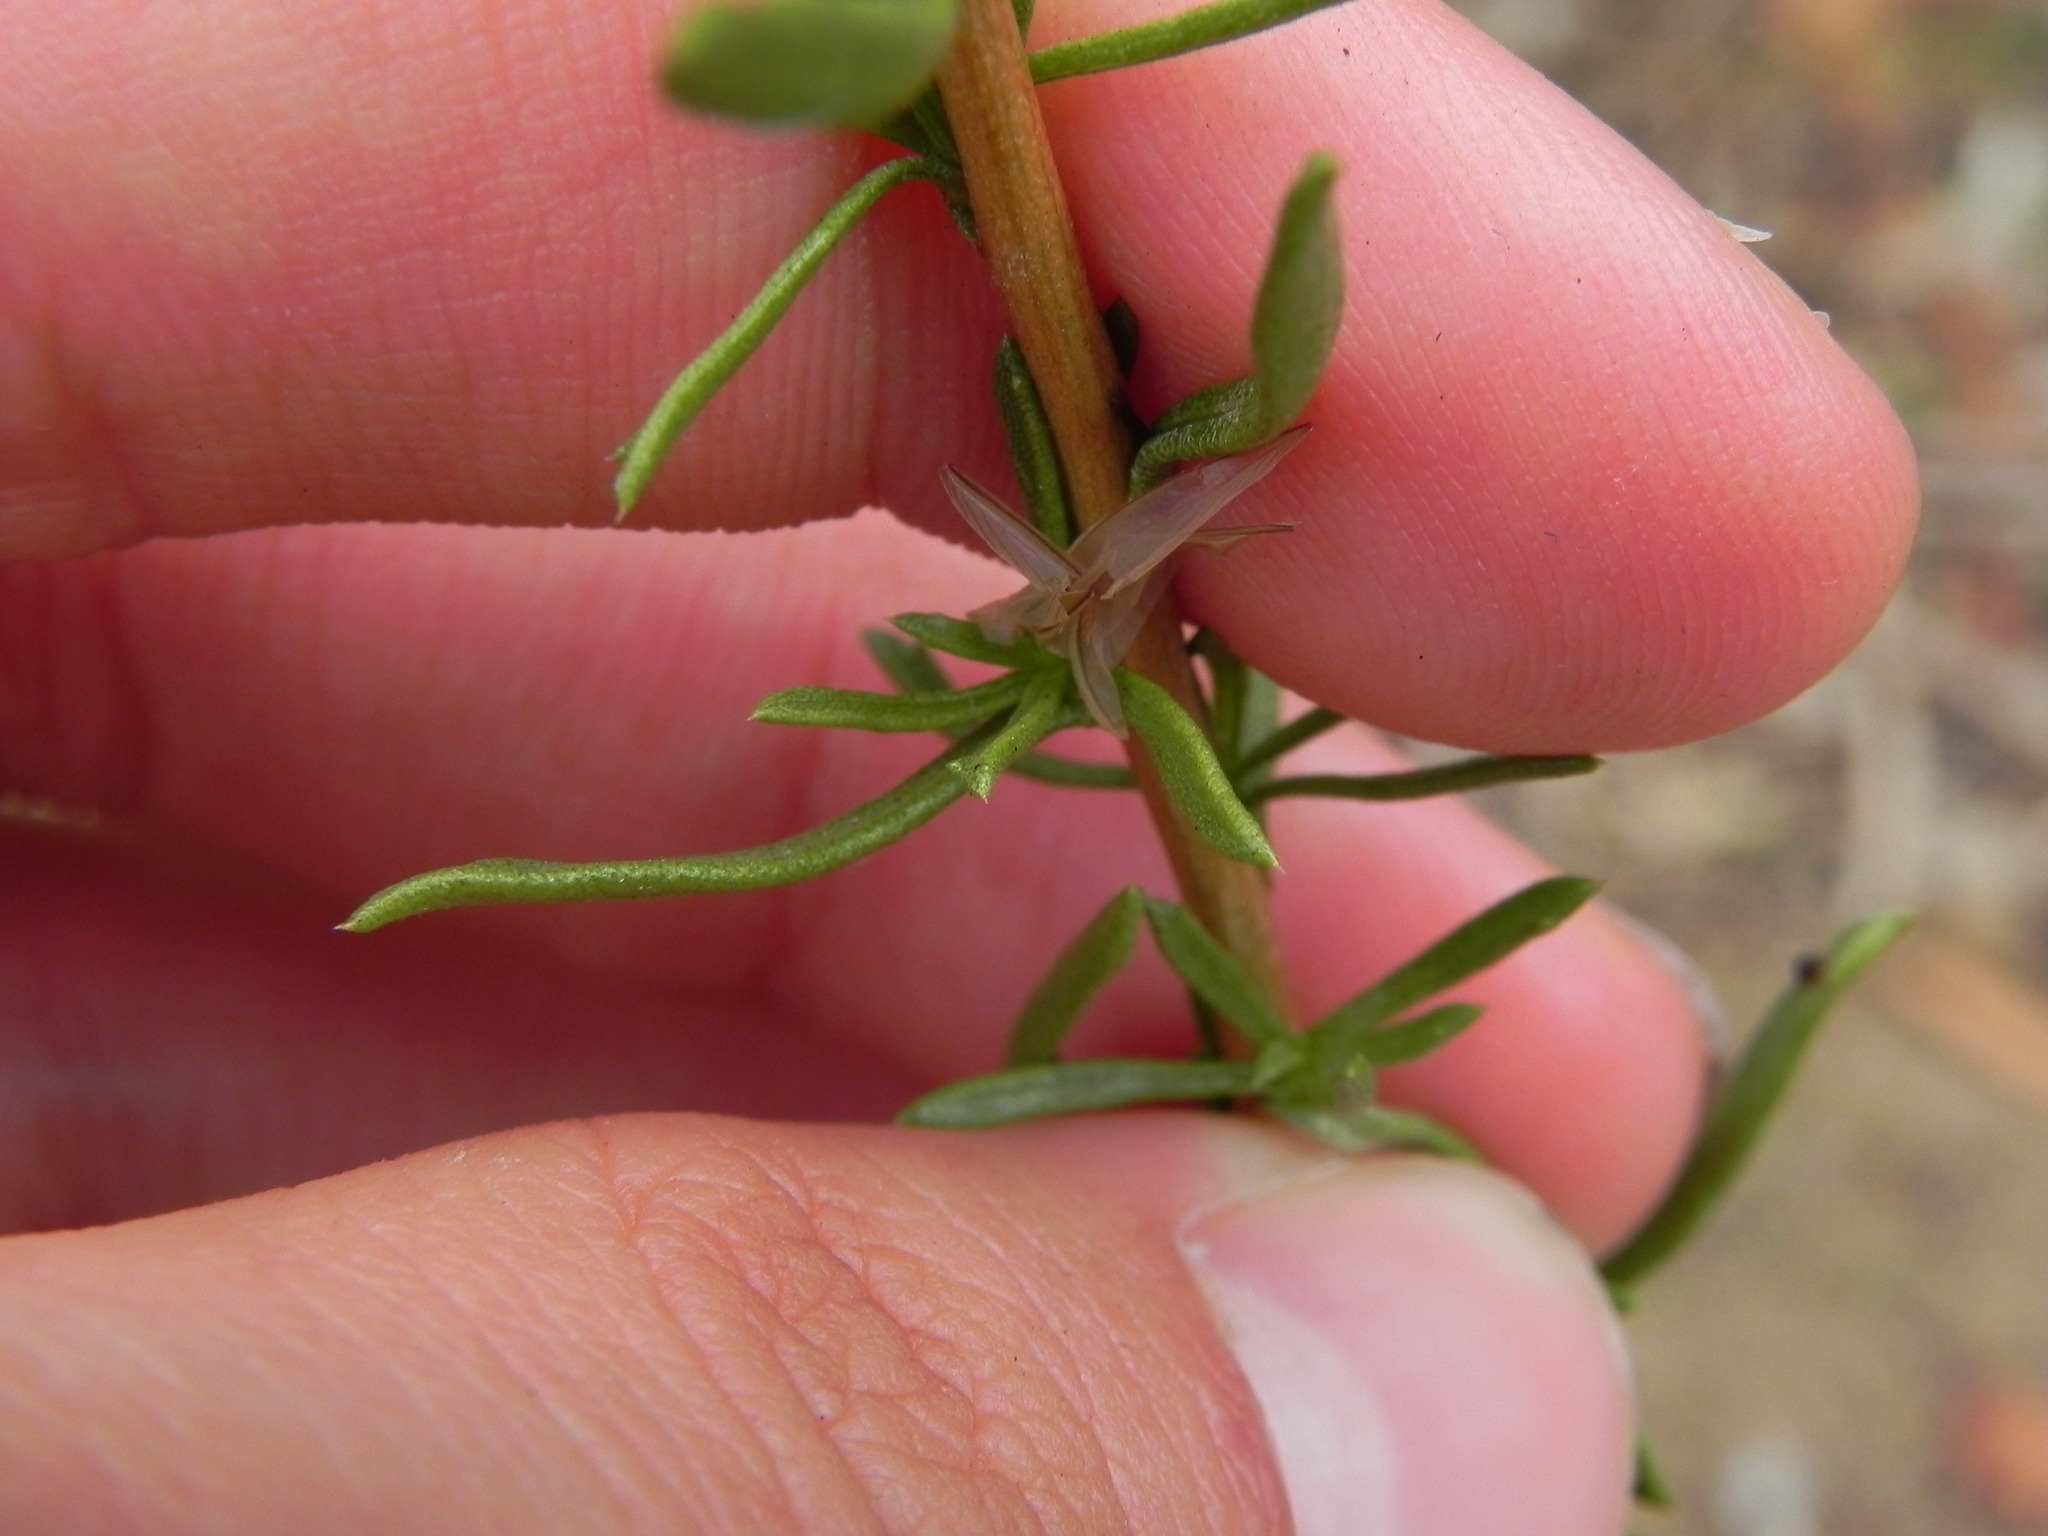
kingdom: Plantae
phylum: Tracheophyta
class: Magnoliopsida
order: Asterales
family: Asteraceae
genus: Isocoma
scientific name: Isocoma menziesii
